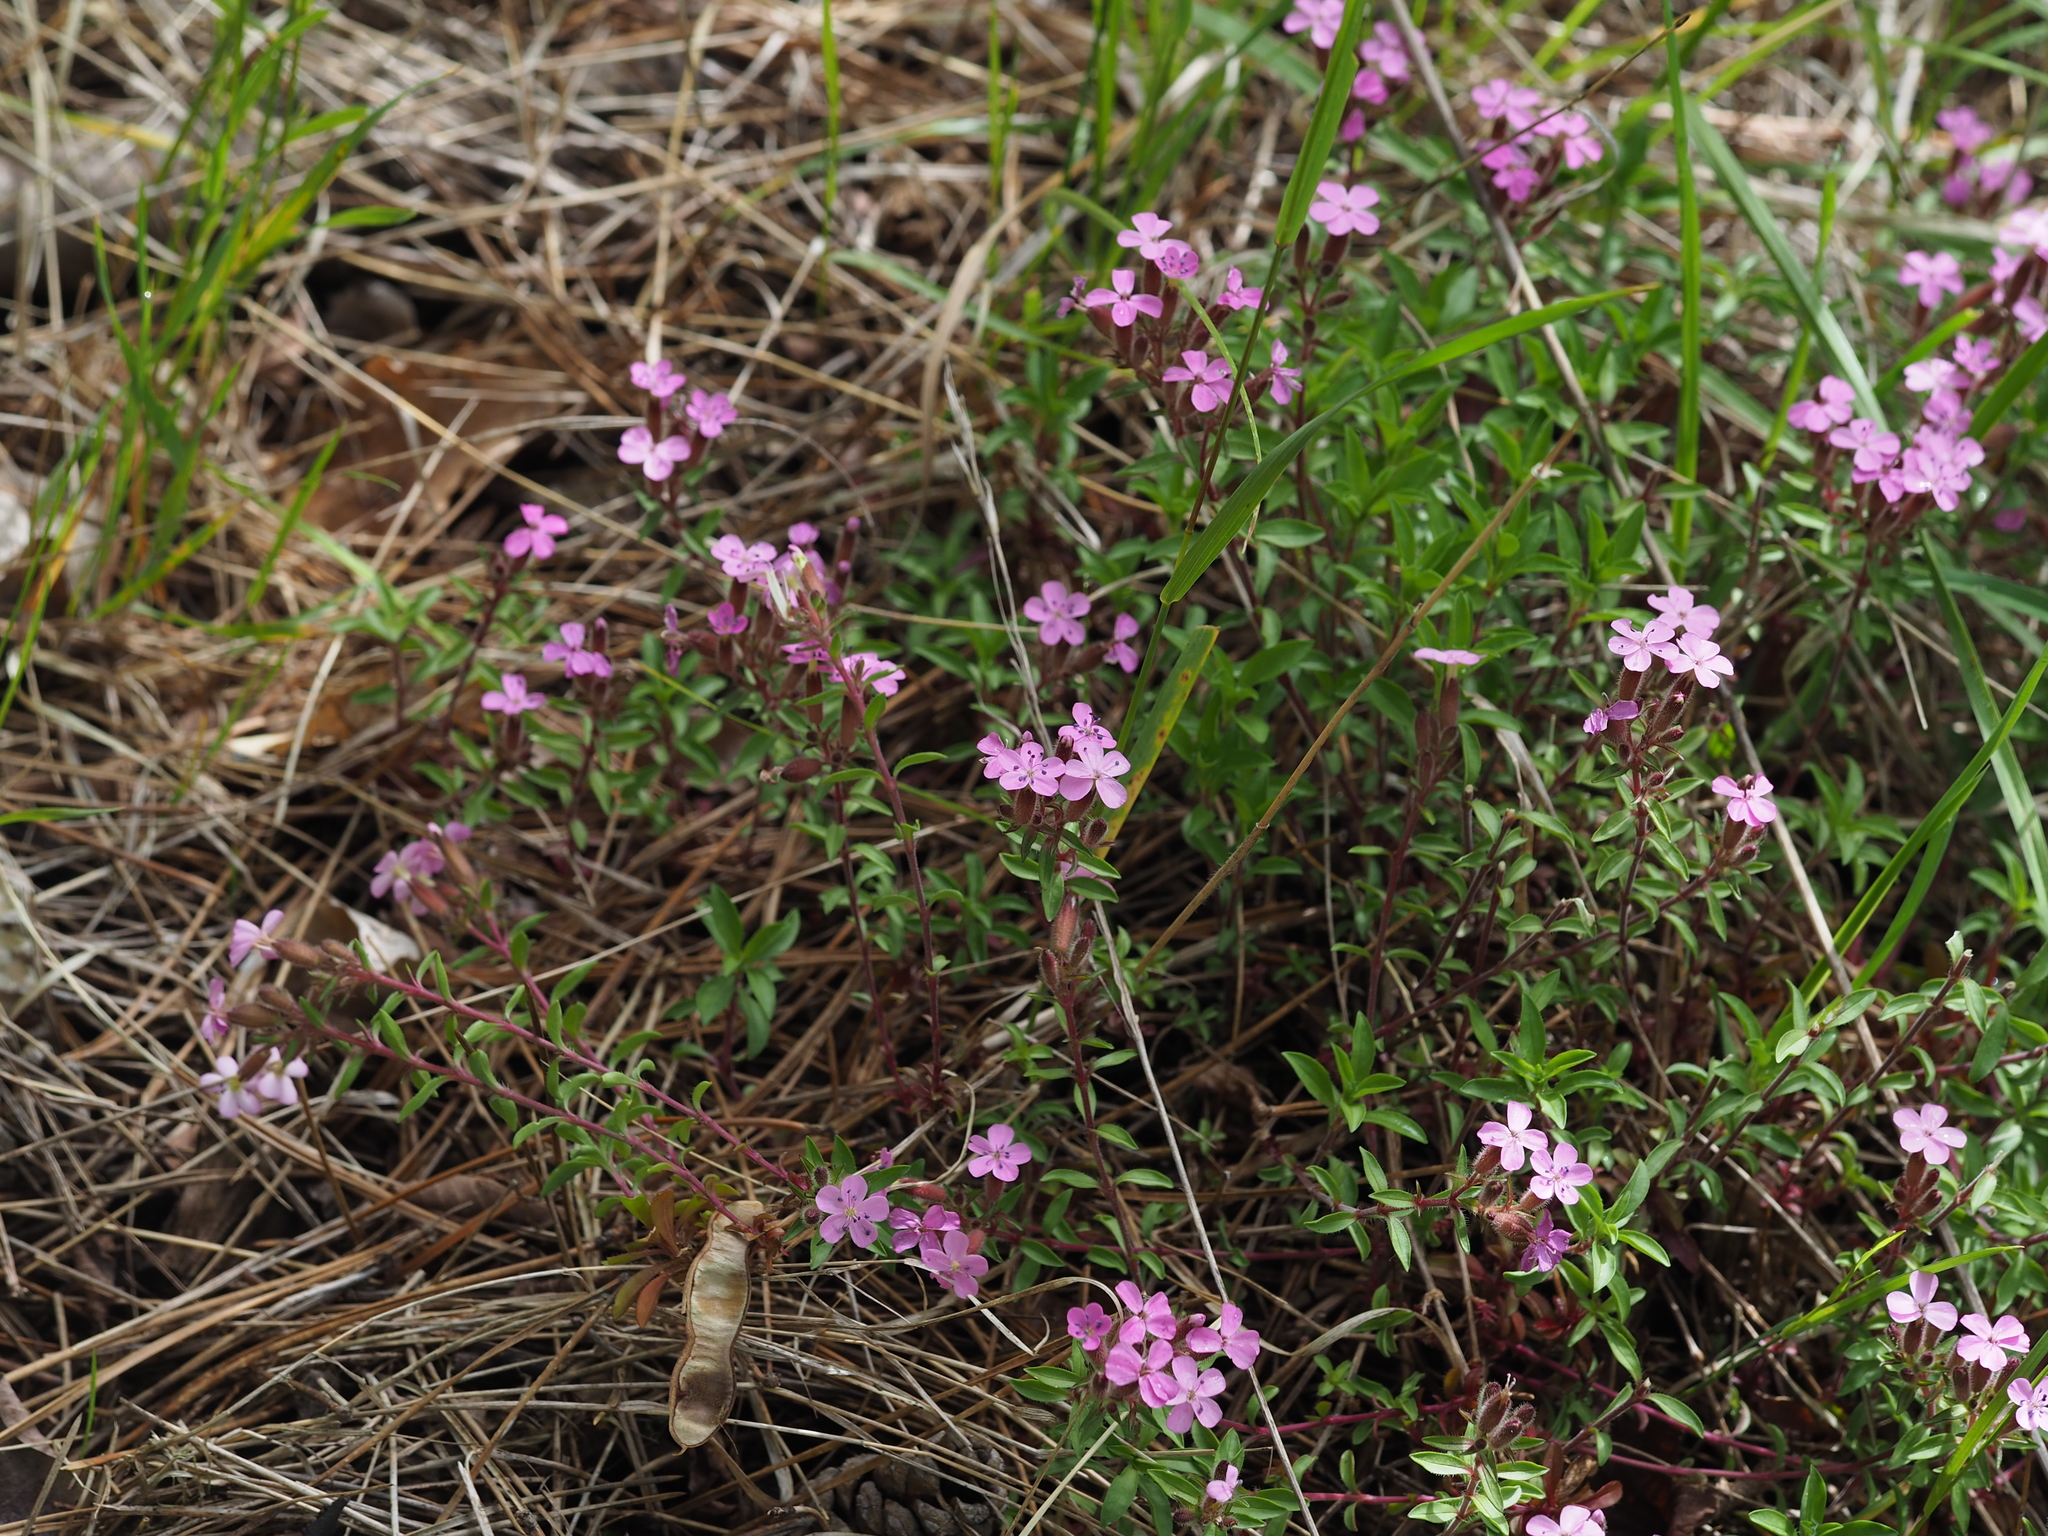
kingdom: Plantae
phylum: Tracheophyta
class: Magnoliopsida
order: Caryophyllales
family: Caryophyllaceae
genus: Saponaria
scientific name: Saponaria ocymoides
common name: Rock soapwort
